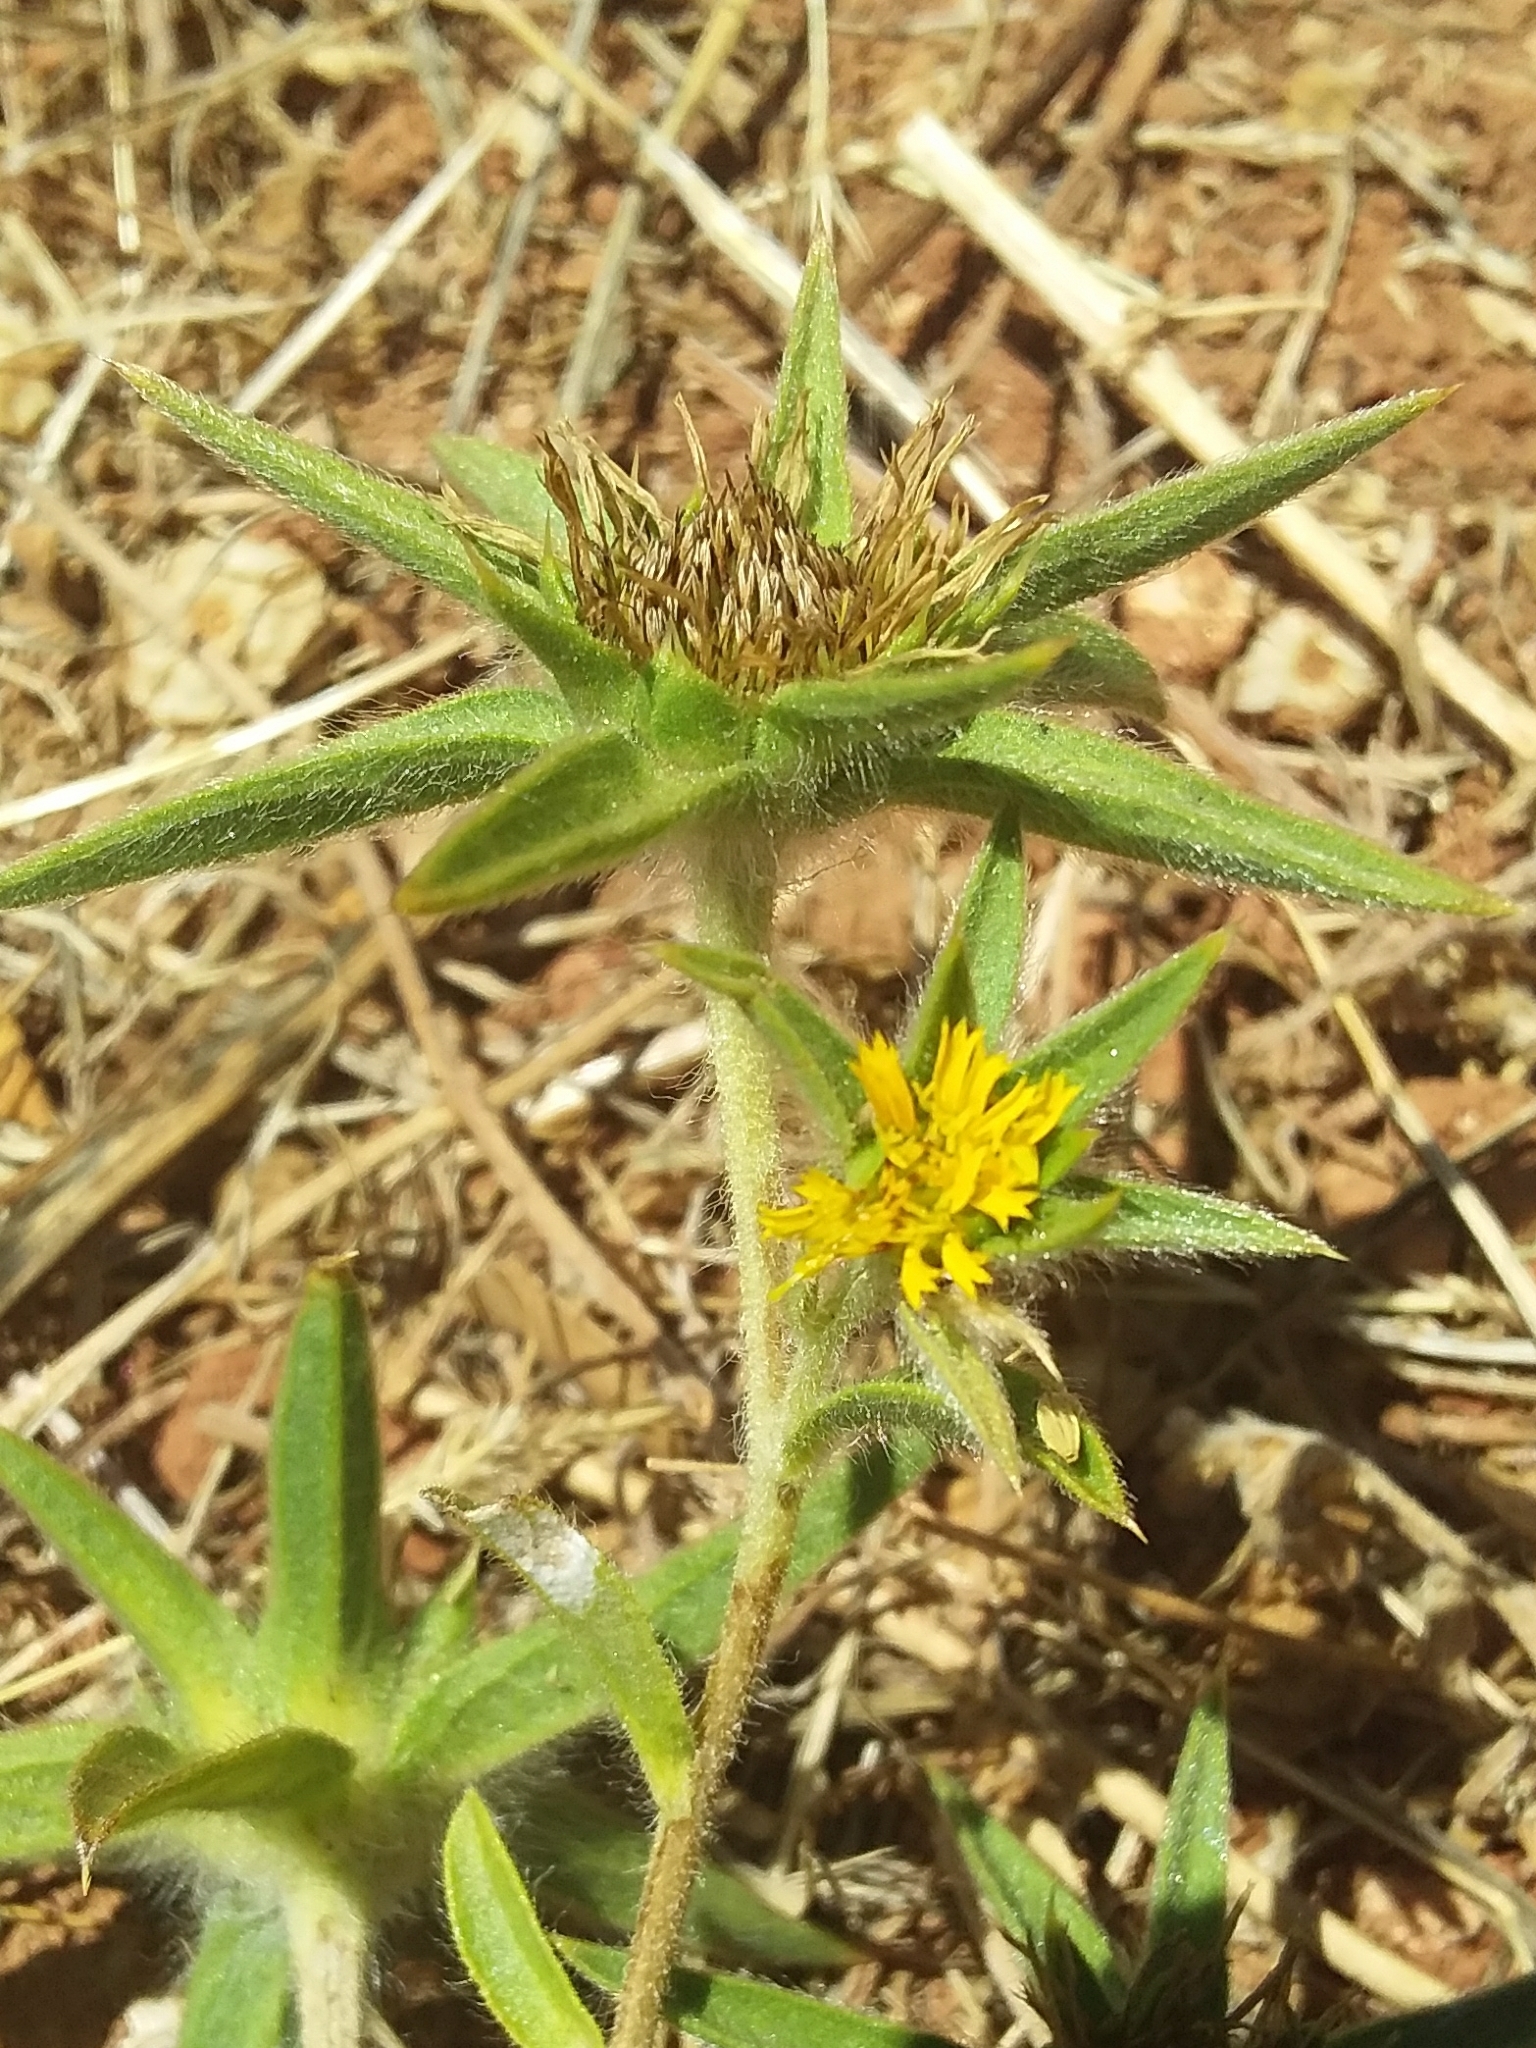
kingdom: Plantae
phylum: Tracheophyta
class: Magnoliopsida
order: Asterales
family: Asteraceae
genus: Pallenis
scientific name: Pallenis spinosa
